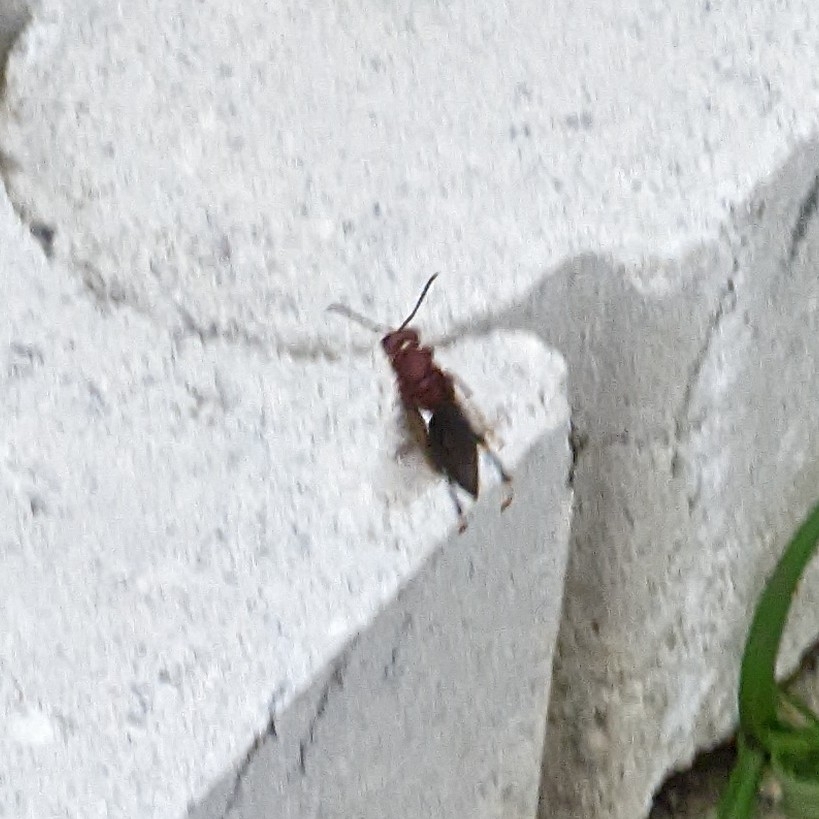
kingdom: Animalia
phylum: Arthropoda
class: Insecta
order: Hymenoptera
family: Eumenidae
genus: Polistes
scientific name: Polistes metricus
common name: Metric paper wasp
